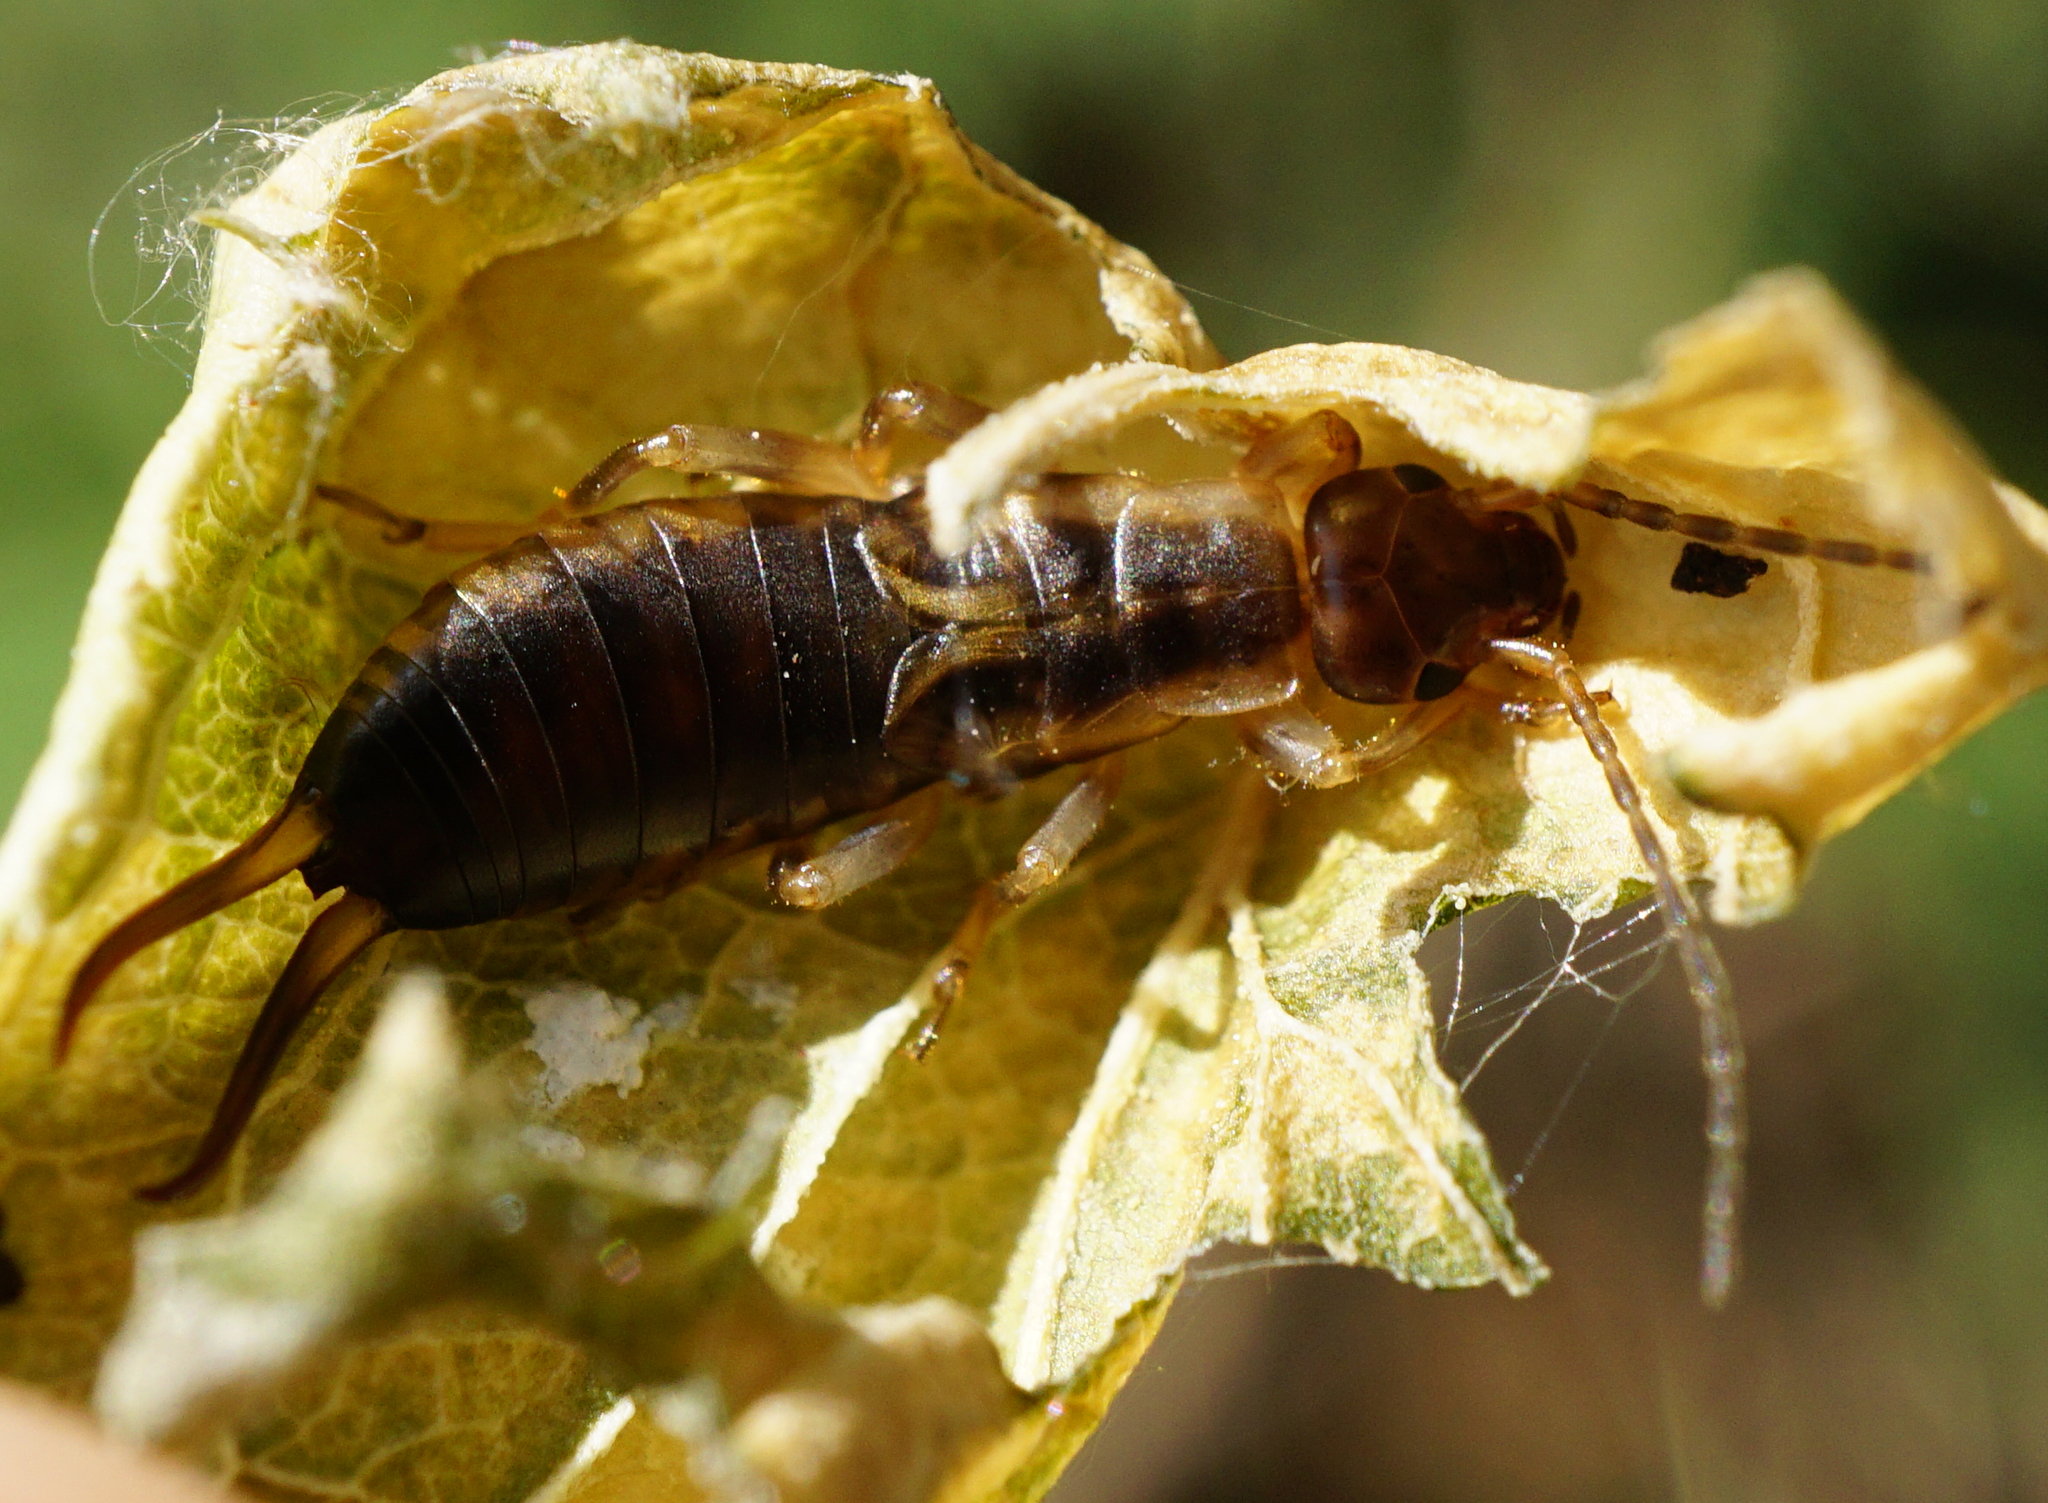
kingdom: Animalia
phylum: Arthropoda
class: Insecta
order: Dermaptera
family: Forficulidae
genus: Forficula
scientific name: Forficula
